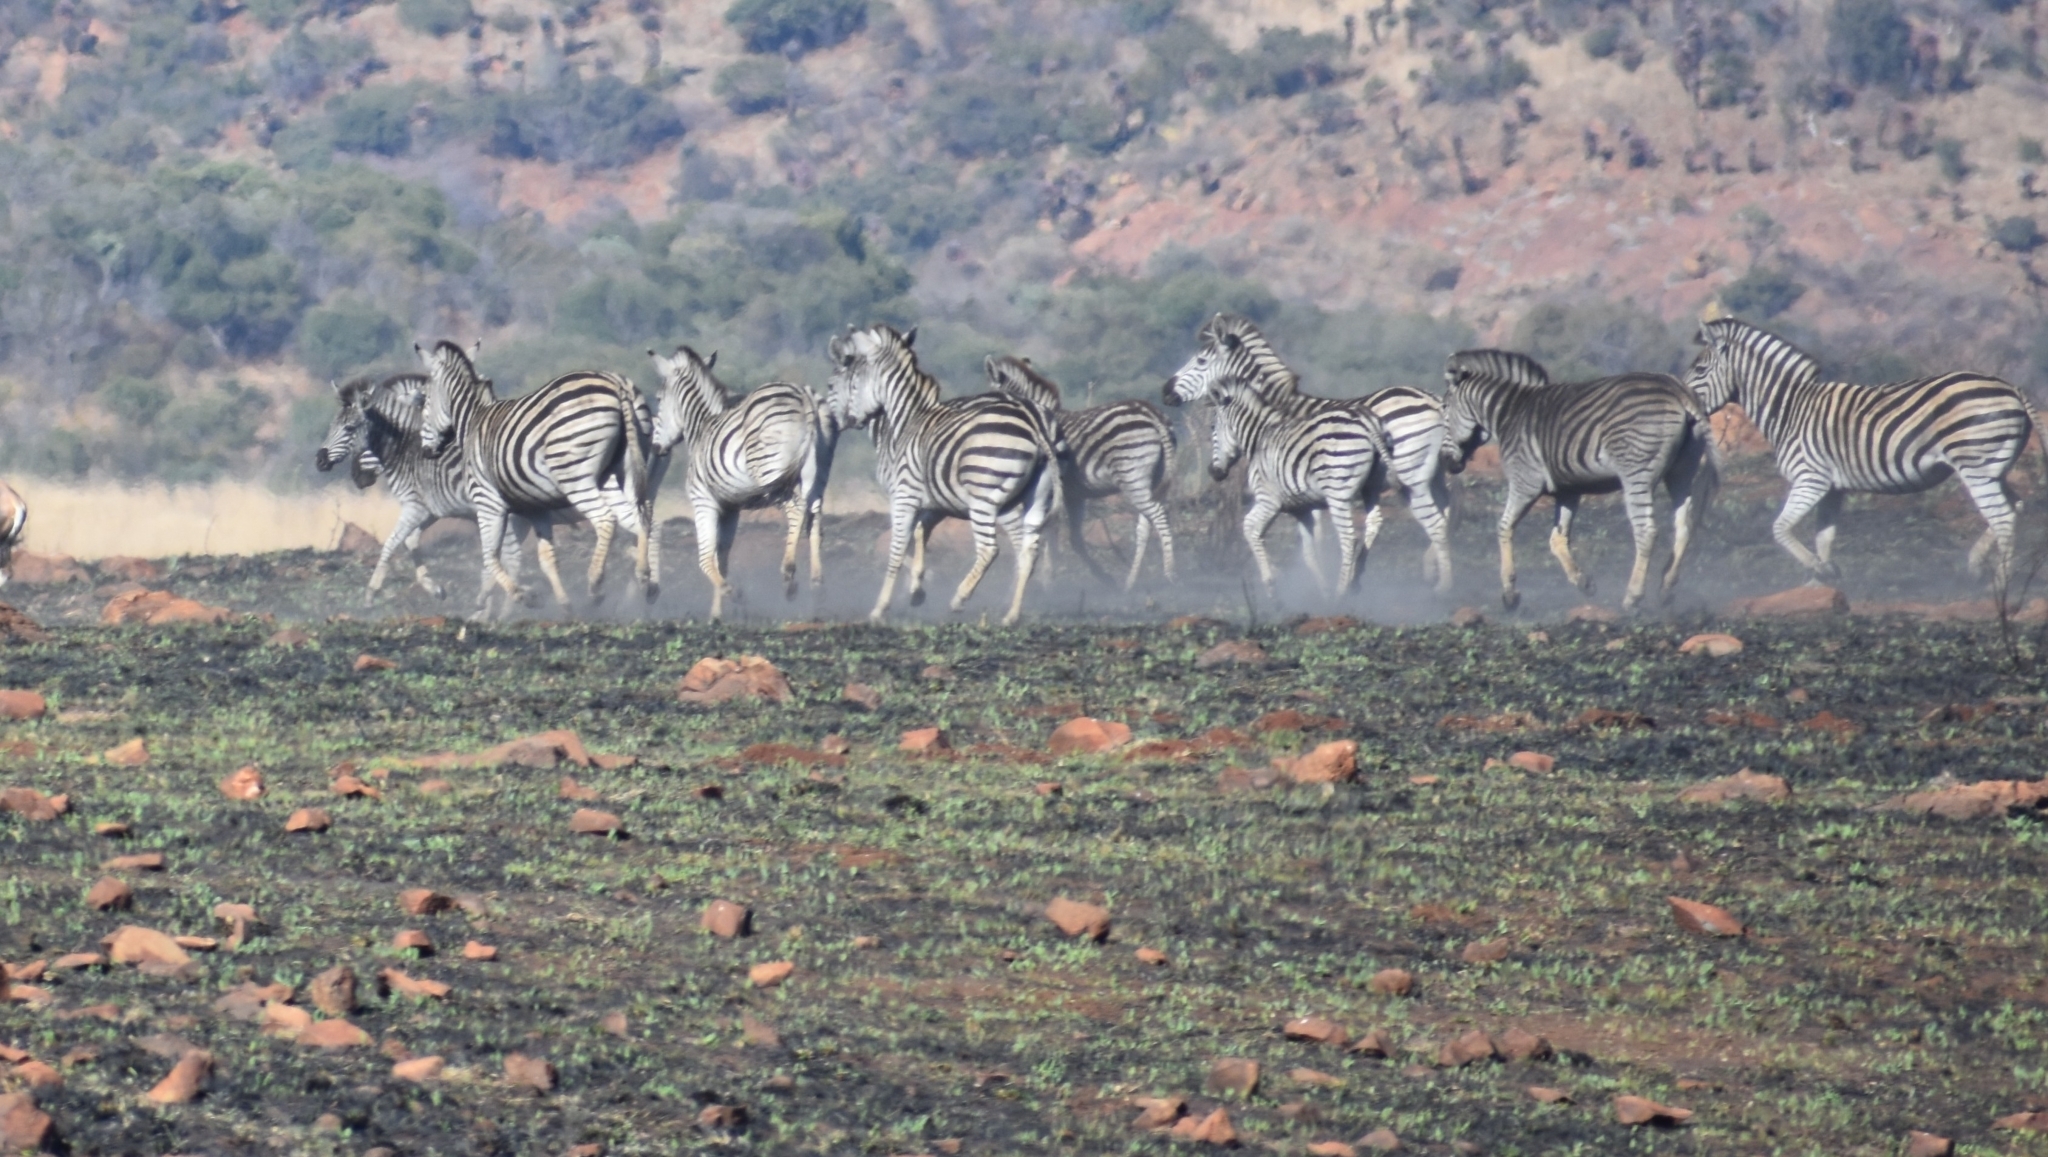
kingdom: Animalia
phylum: Chordata
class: Mammalia
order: Perissodactyla
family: Equidae
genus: Equus
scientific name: Equus quagga
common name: Plains zebra
